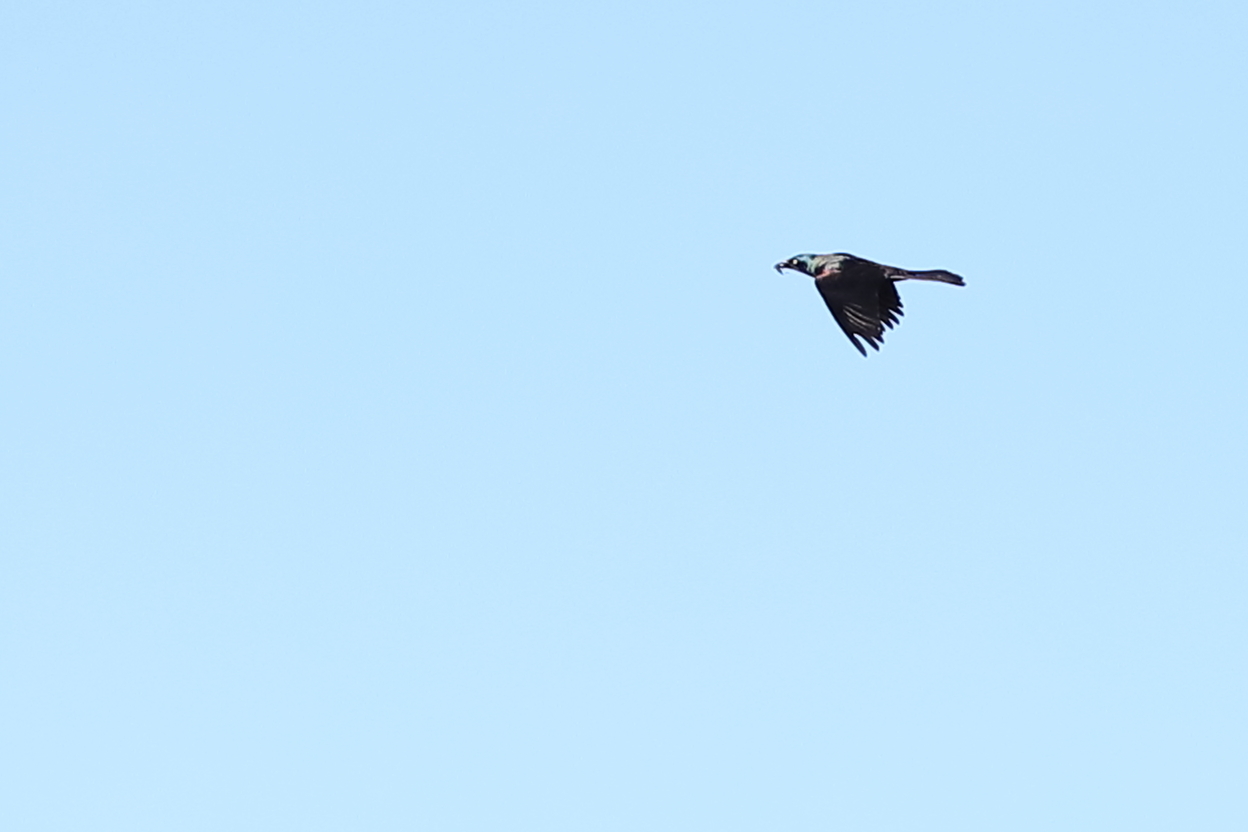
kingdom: Animalia
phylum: Chordata
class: Aves
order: Passeriformes
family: Icteridae
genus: Quiscalus
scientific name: Quiscalus quiscula
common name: Common grackle
